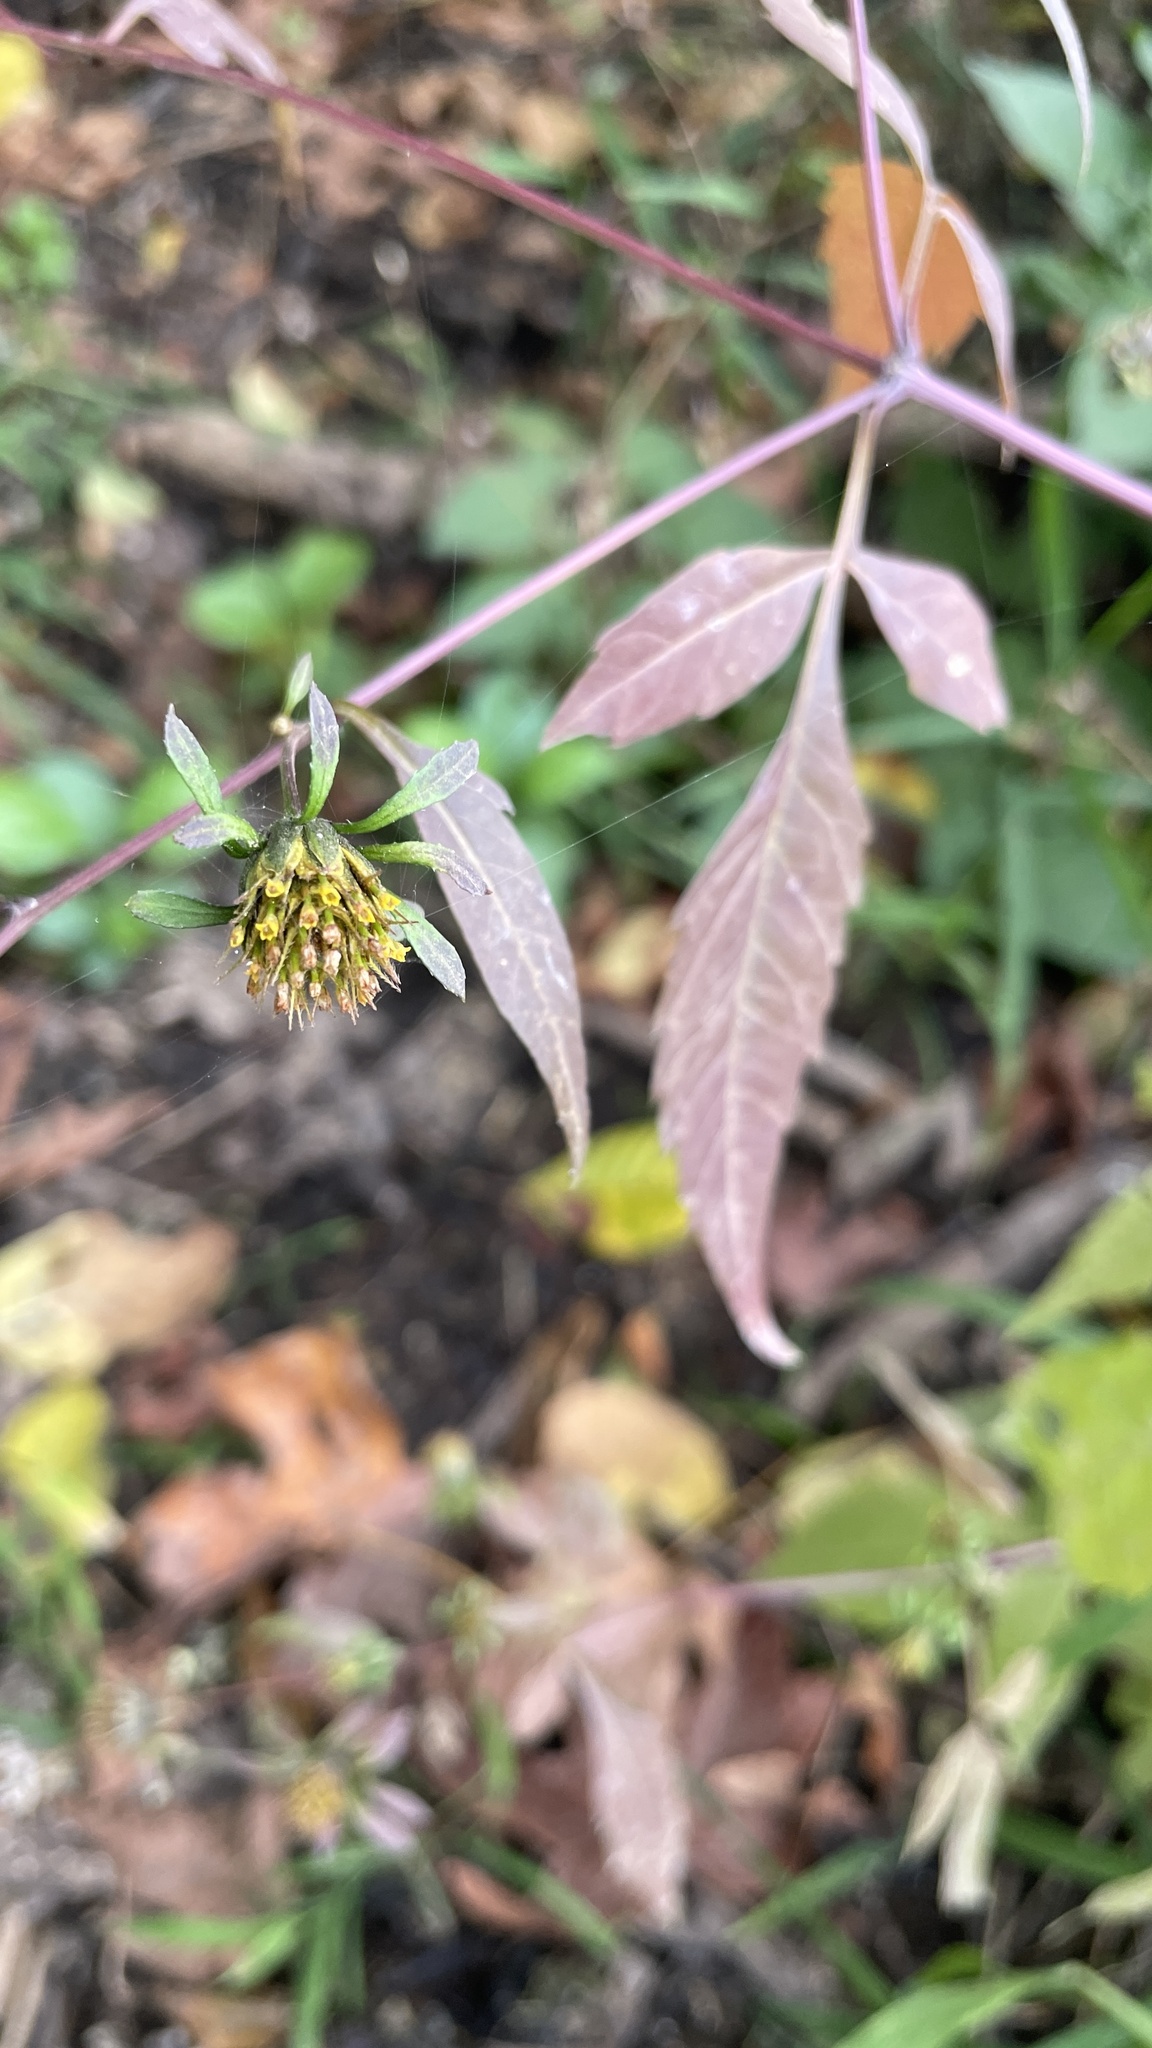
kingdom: Plantae
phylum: Tracheophyta
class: Magnoliopsida
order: Asterales
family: Asteraceae
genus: Bidens
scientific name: Bidens frondosa
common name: Beggarticks
